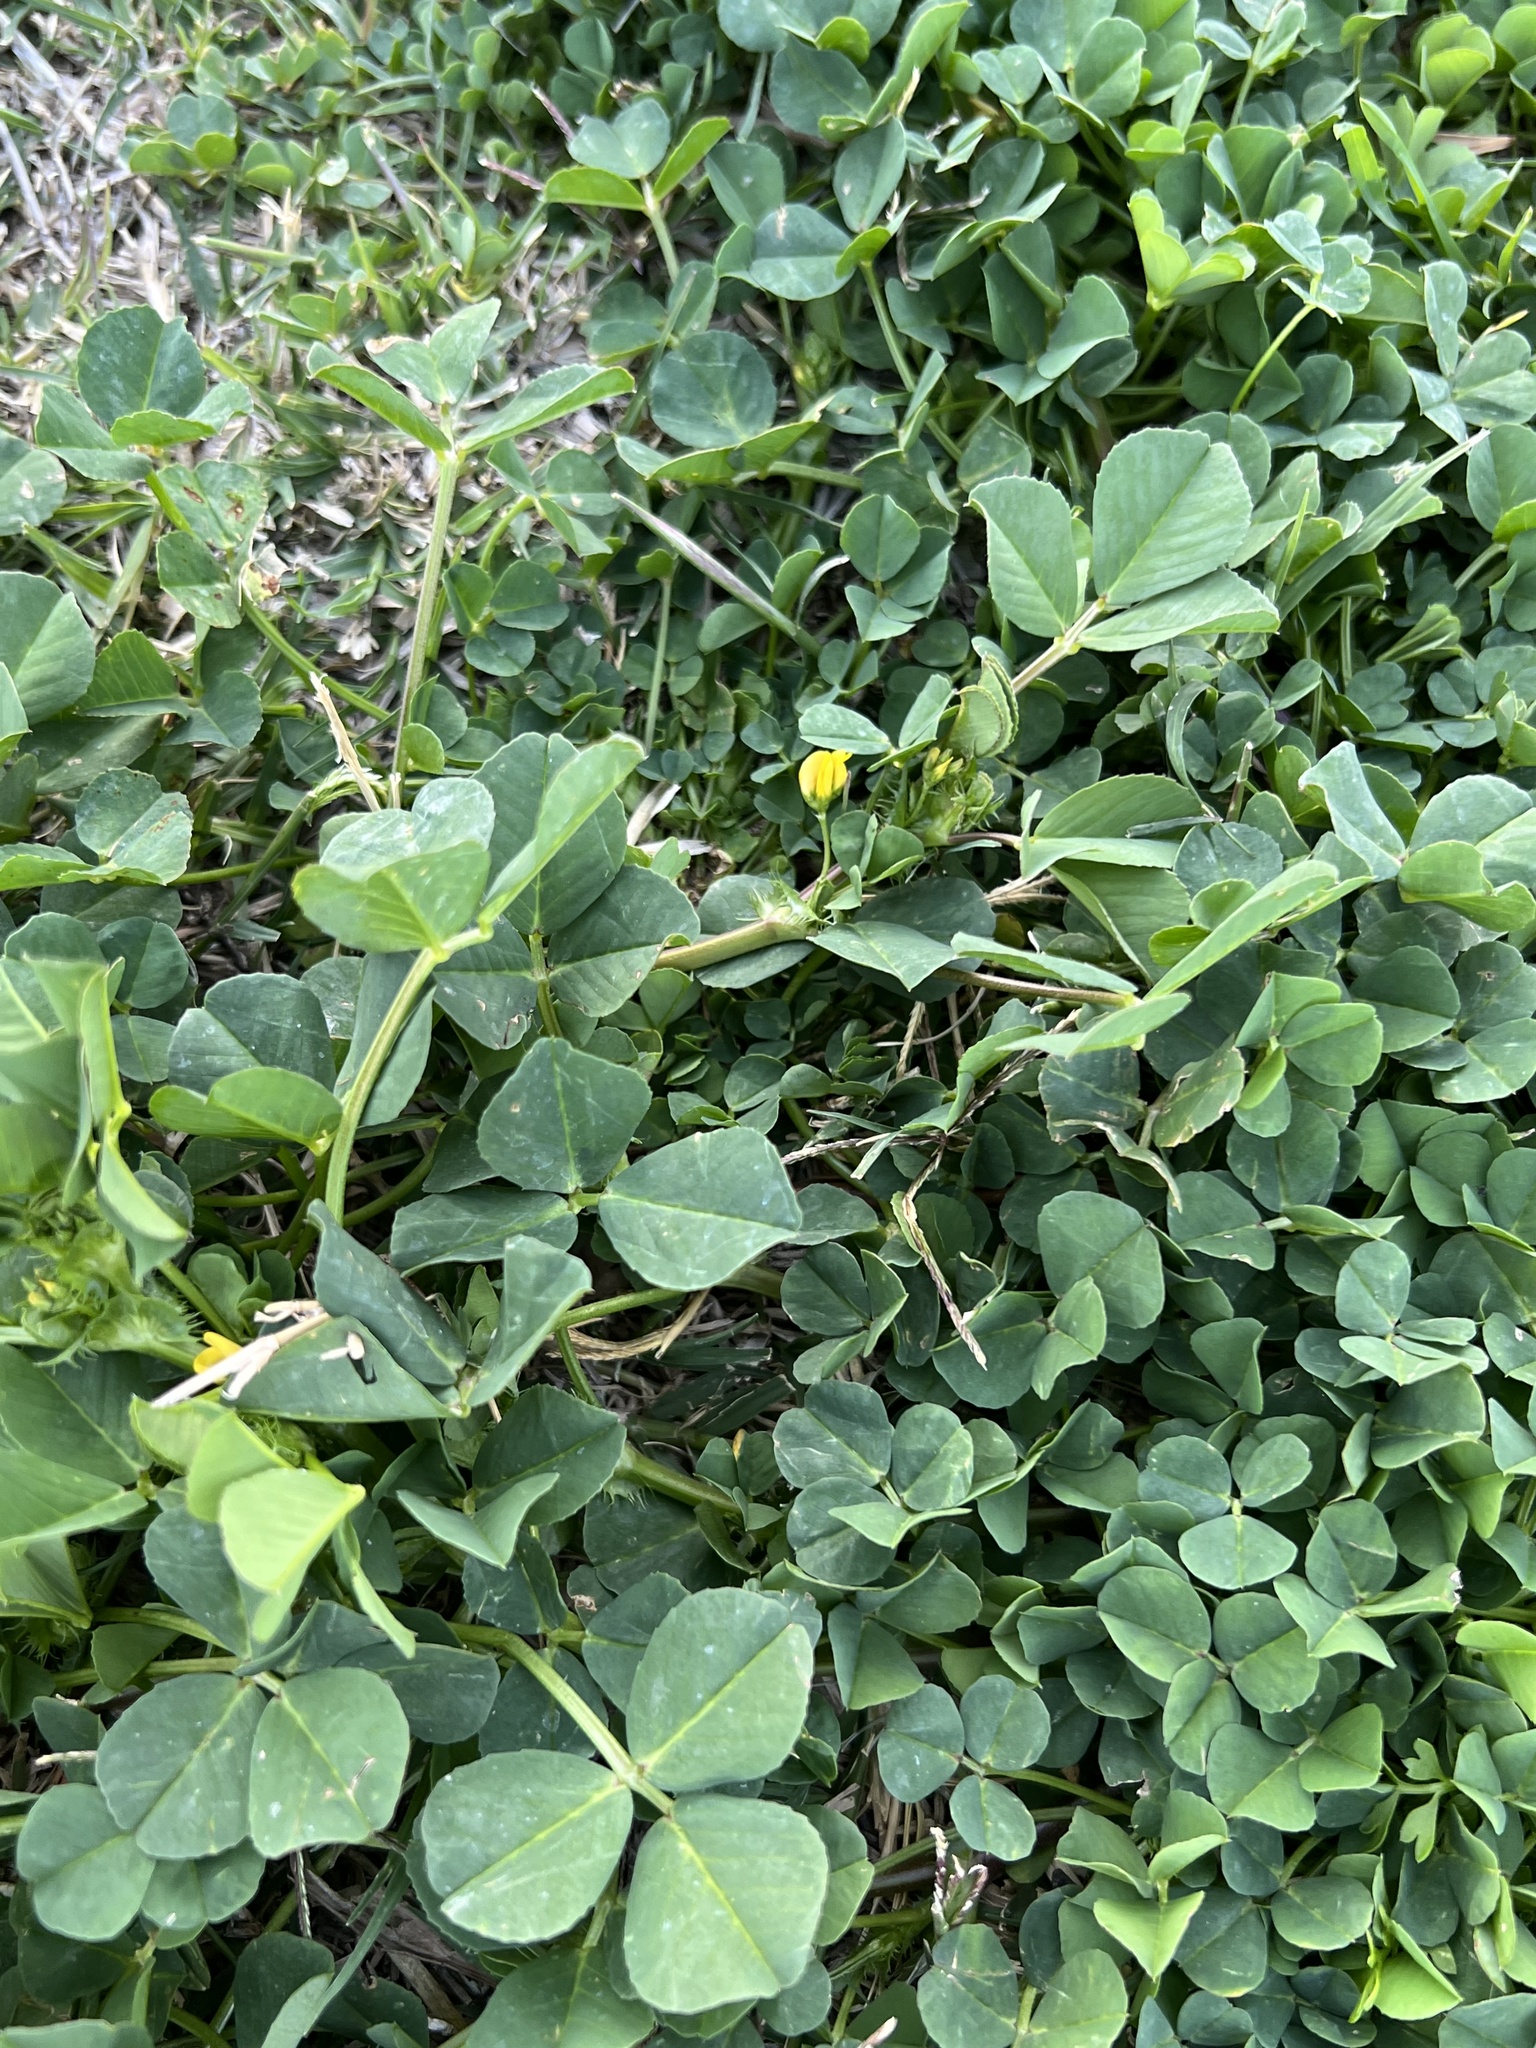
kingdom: Plantae
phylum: Tracheophyta
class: Magnoliopsida
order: Fabales
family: Fabaceae
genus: Medicago
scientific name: Medicago polymorpha
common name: Burclover
